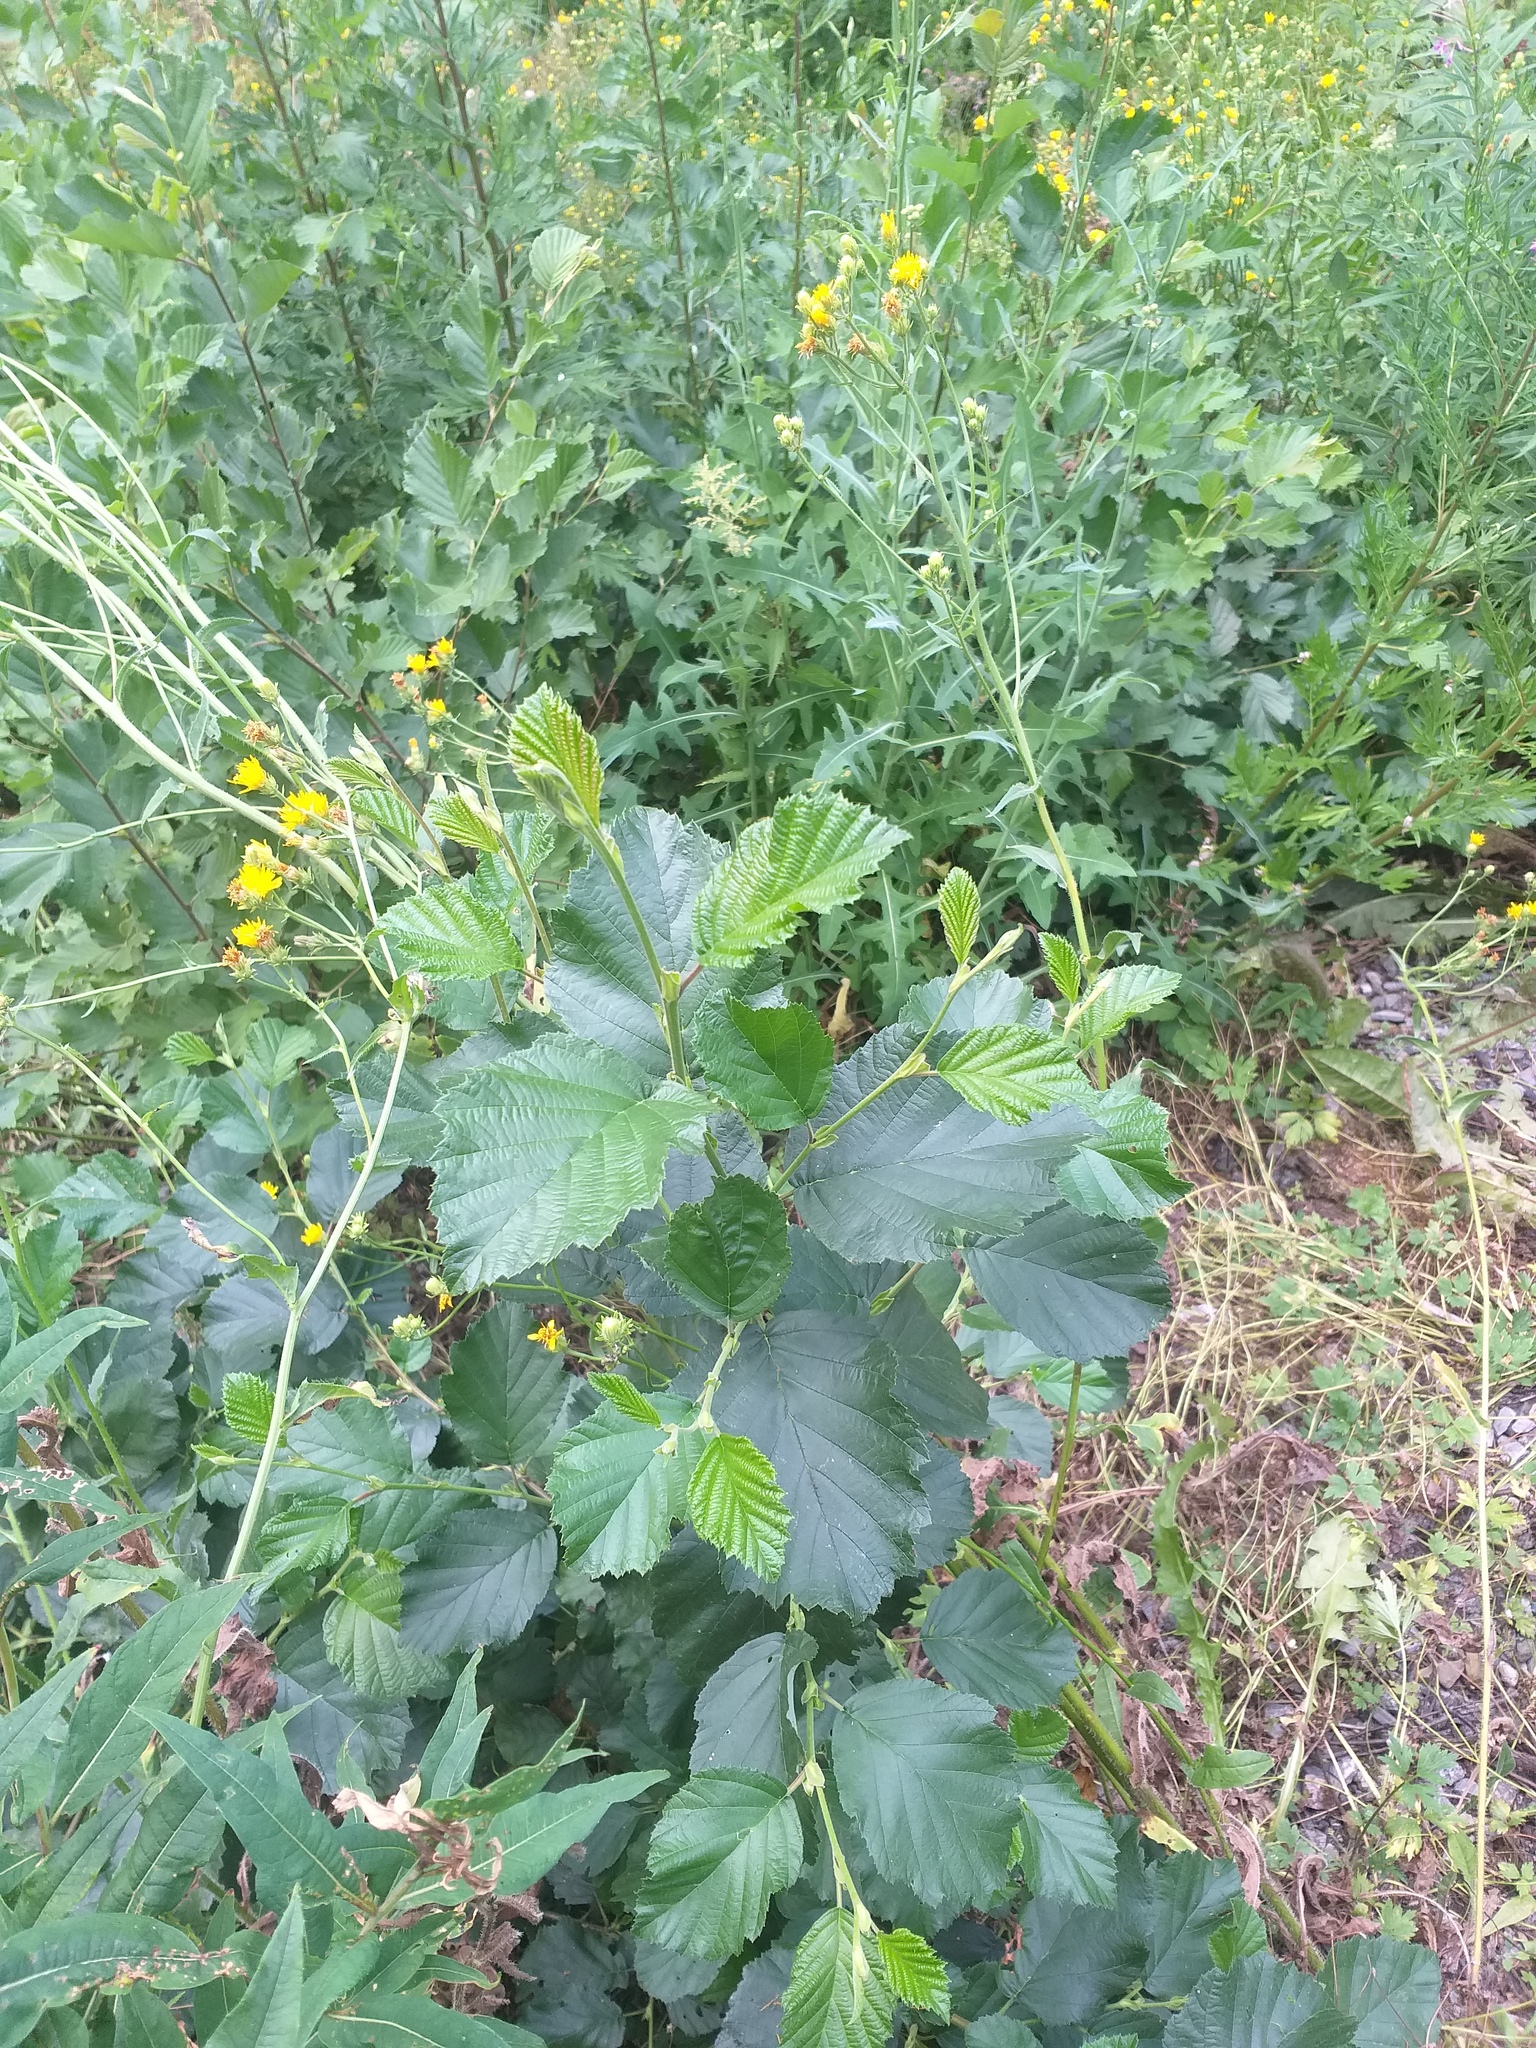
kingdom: Plantae
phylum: Tracheophyta
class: Magnoliopsida
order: Fagales
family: Betulaceae
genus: Alnus
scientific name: Alnus incana
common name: Grey alder
